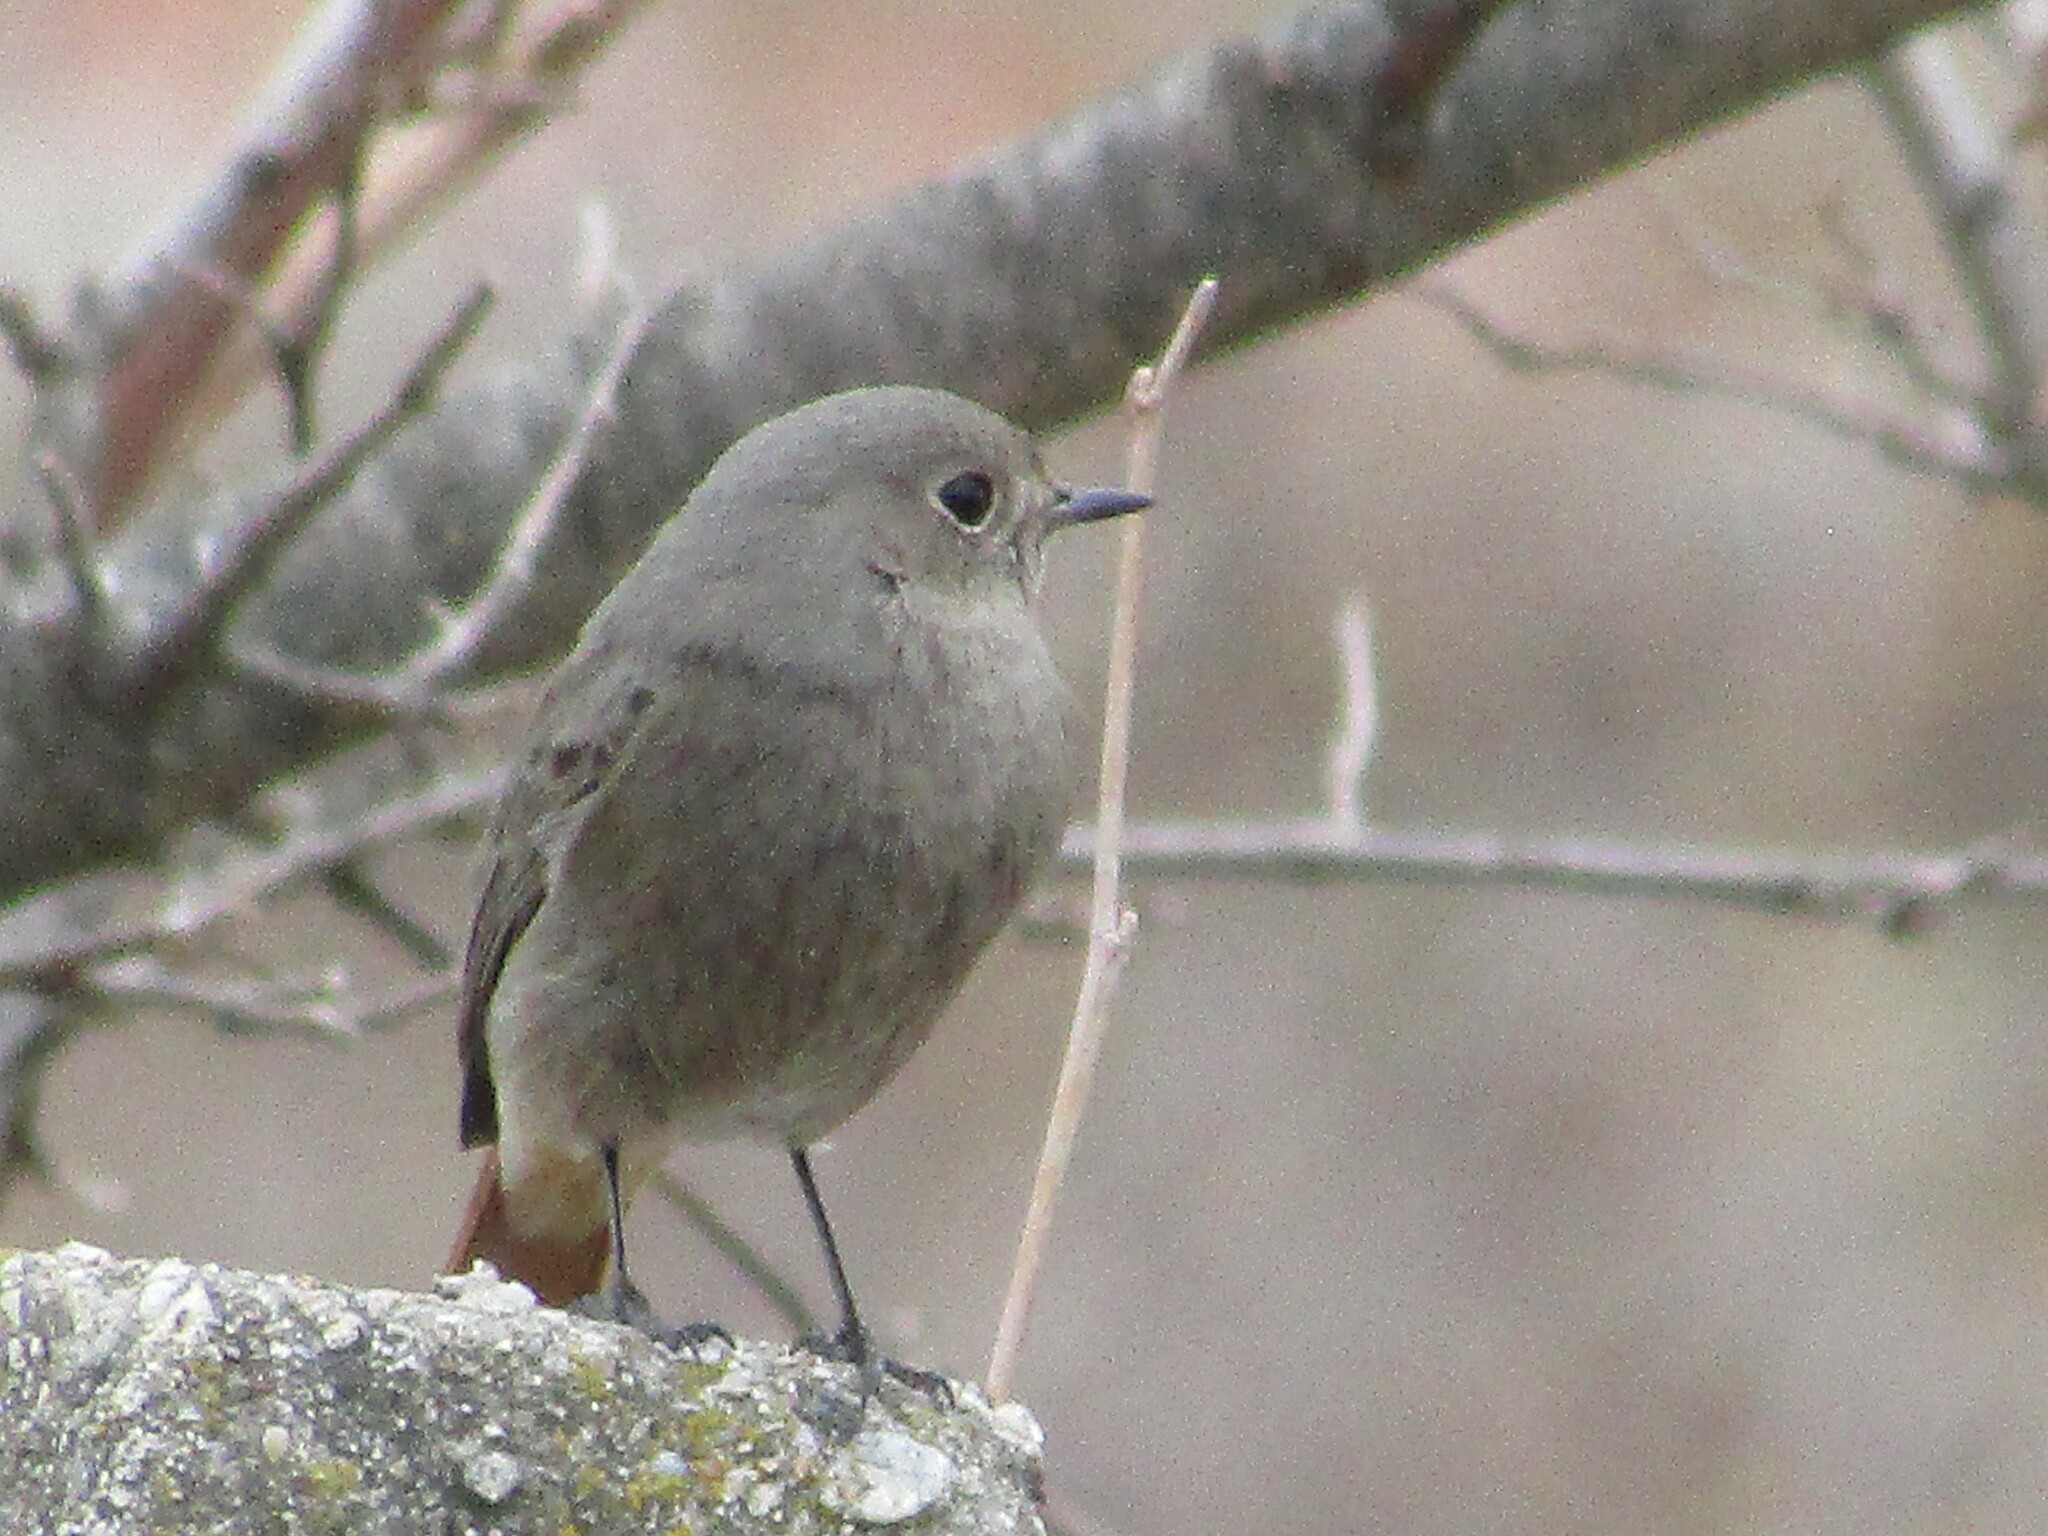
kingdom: Animalia
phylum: Chordata
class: Aves
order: Passeriformes
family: Muscicapidae
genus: Phoenicurus
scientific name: Phoenicurus ochruros
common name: Black redstart
